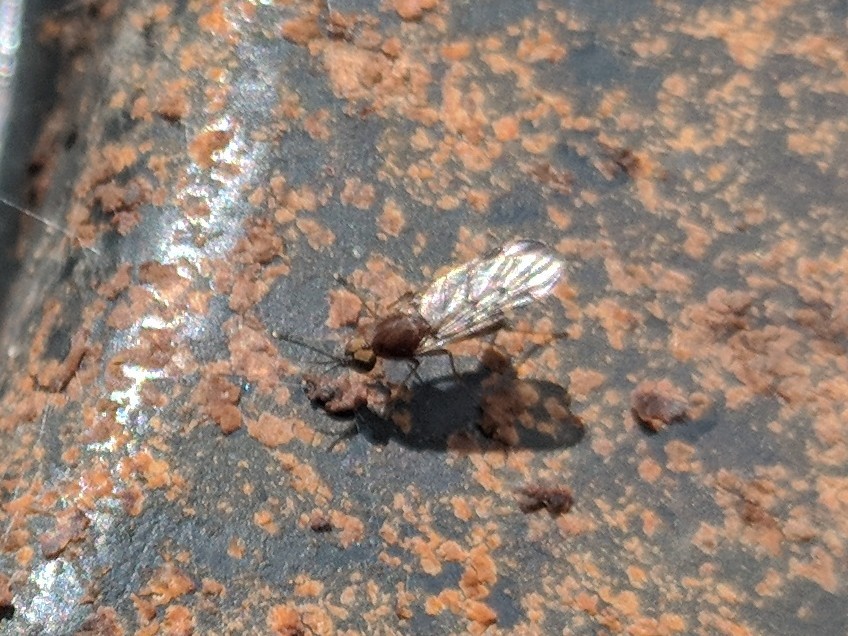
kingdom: Animalia
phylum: Arthropoda
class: Insecta
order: Diptera
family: Anisopodidae
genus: Sylvicola
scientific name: Sylvicola
